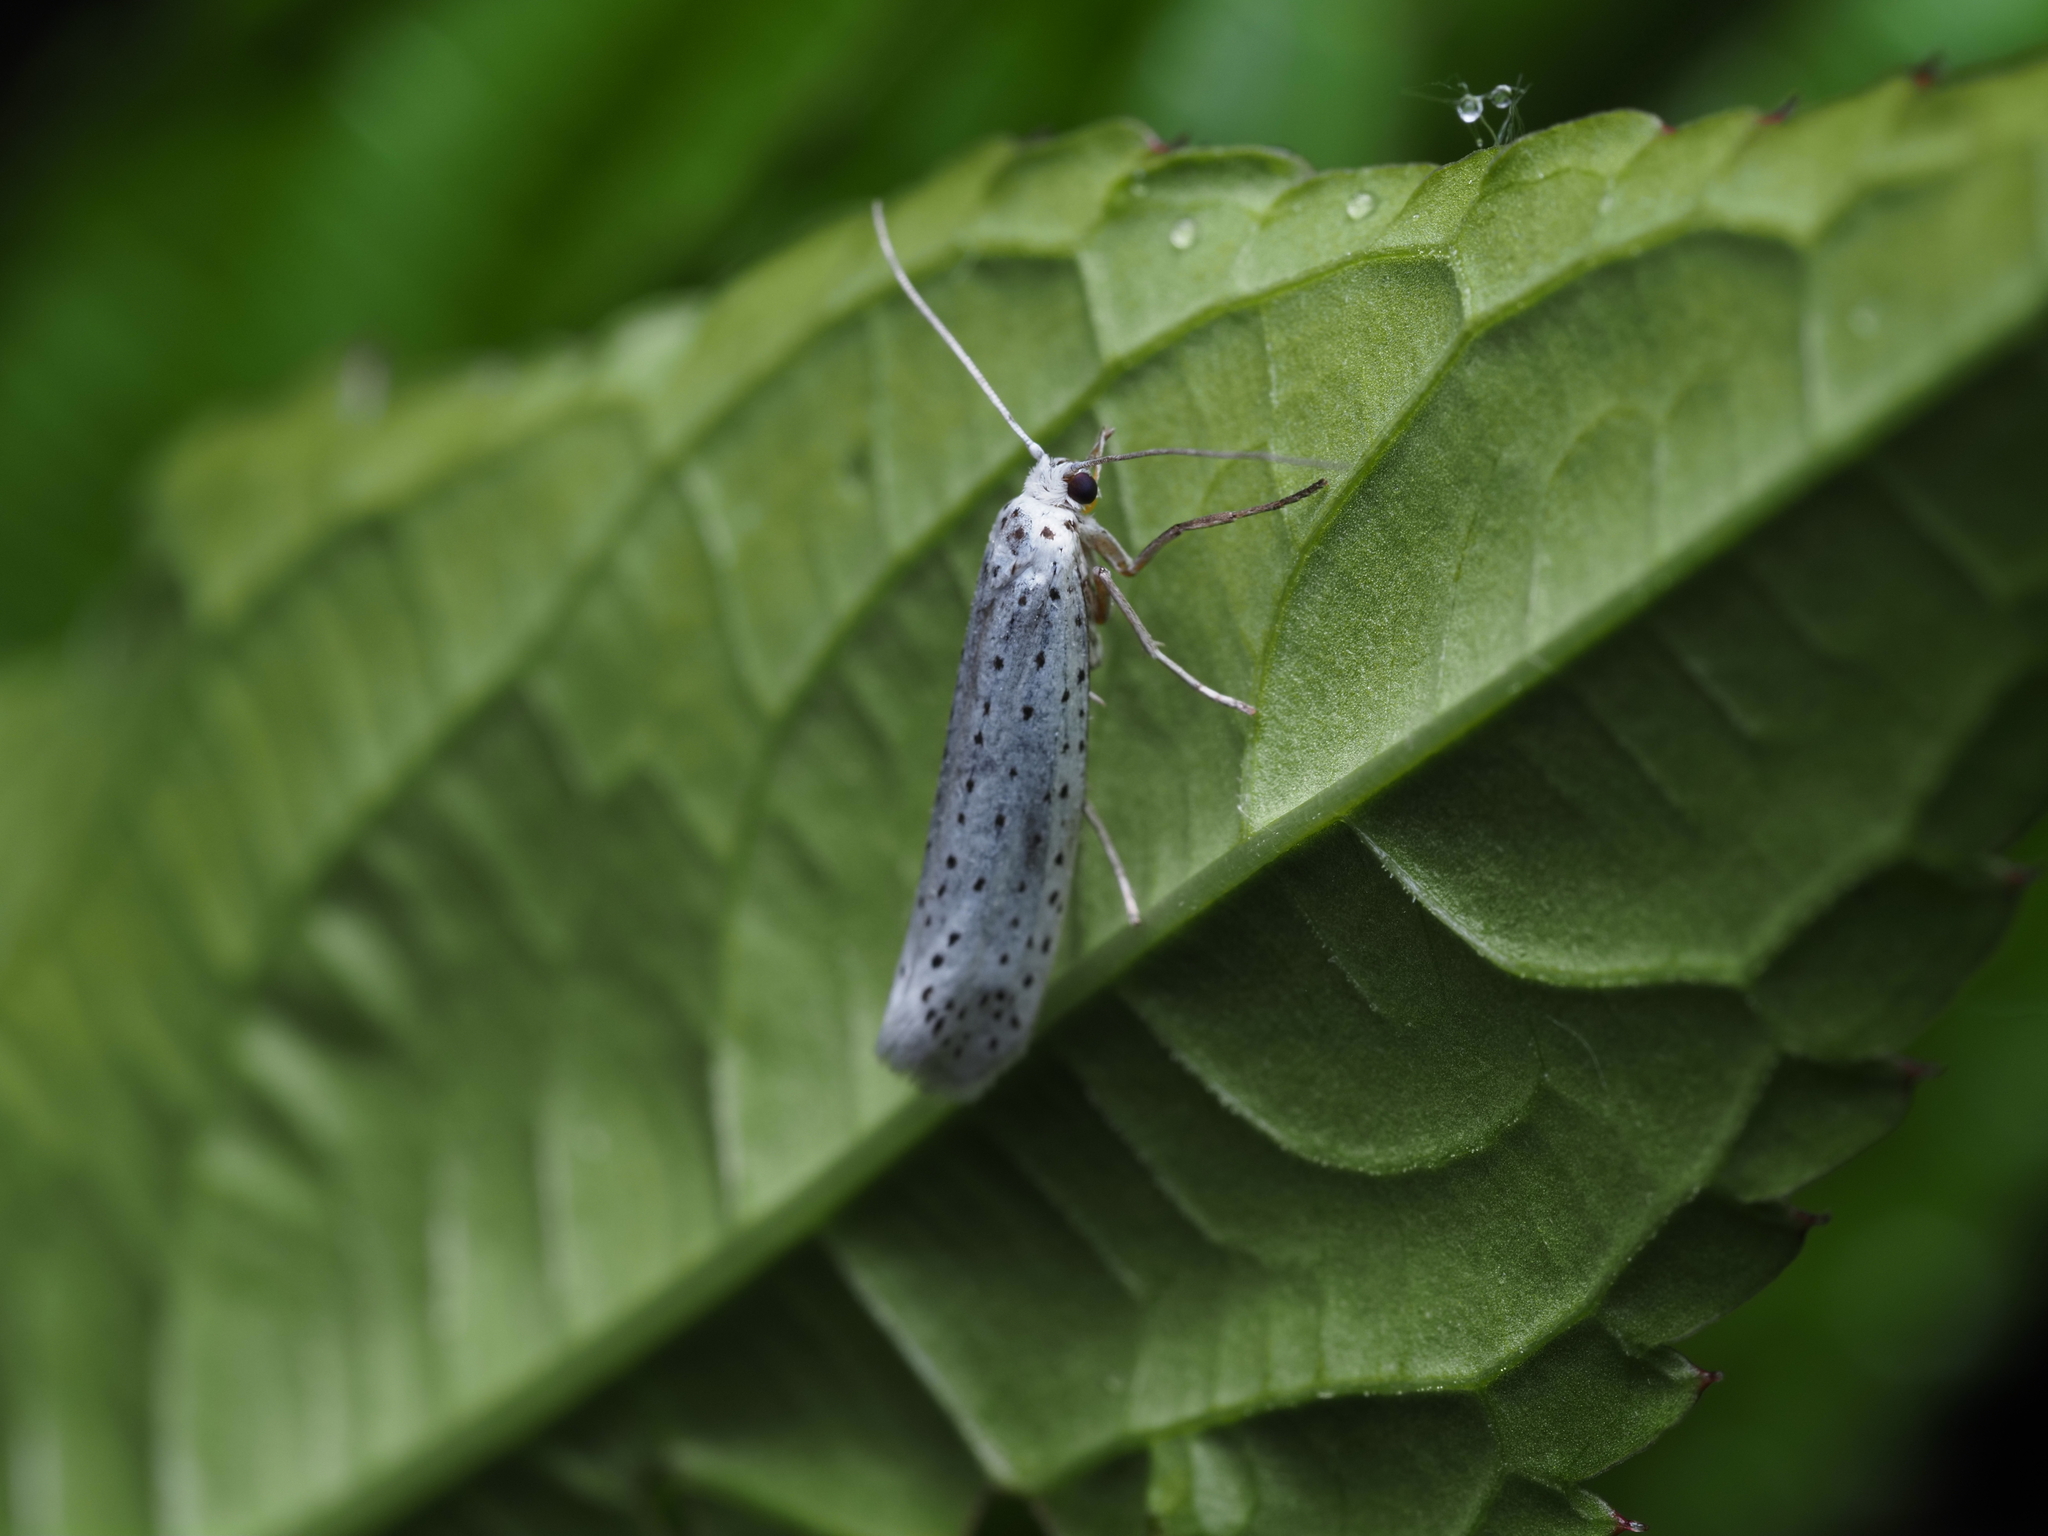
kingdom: Animalia
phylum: Arthropoda
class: Insecta
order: Lepidoptera
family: Yponomeutidae
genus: Yponomeuta
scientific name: Yponomeuta evonymella
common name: Bird-cherry ermine
